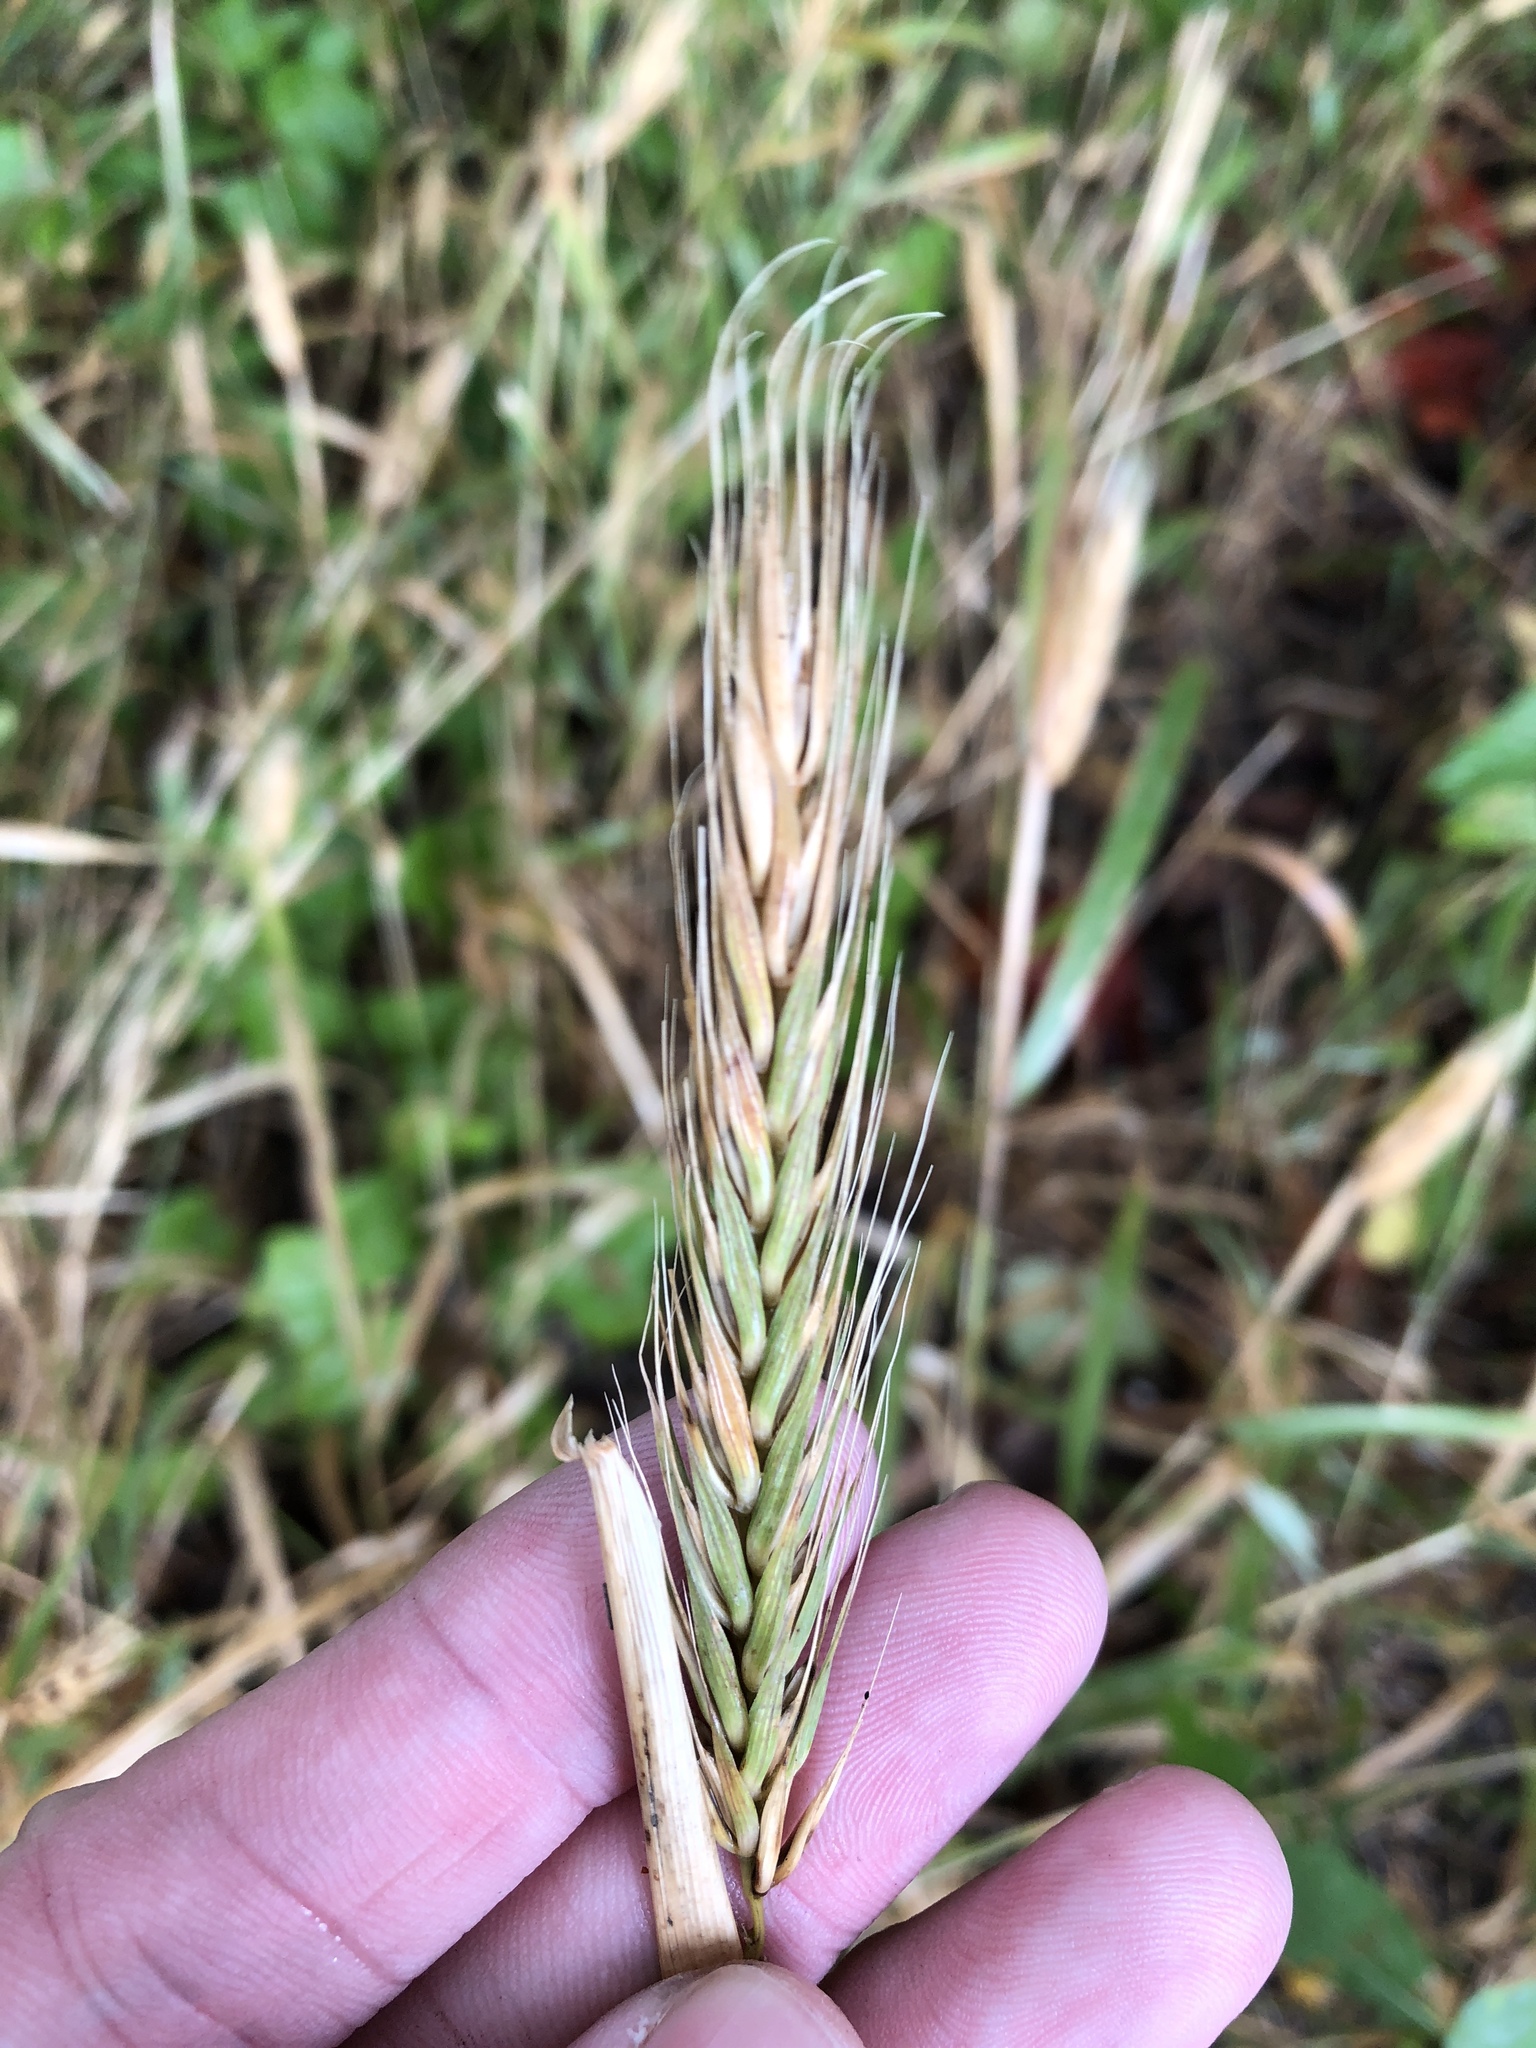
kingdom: Plantae
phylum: Tracheophyta
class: Liliopsida
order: Poales
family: Poaceae
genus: Elymus
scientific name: Elymus virginicus
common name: Common eastern wildrye
